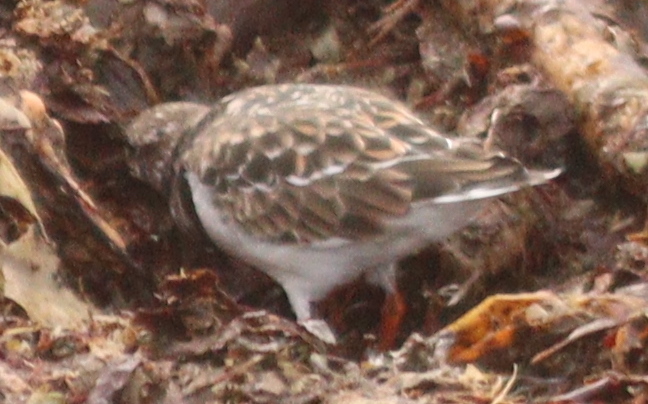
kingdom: Animalia
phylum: Chordata
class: Aves
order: Charadriiformes
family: Scolopacidae
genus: Arenaria
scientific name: Arenaria interpres
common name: Ruddy turnstone
